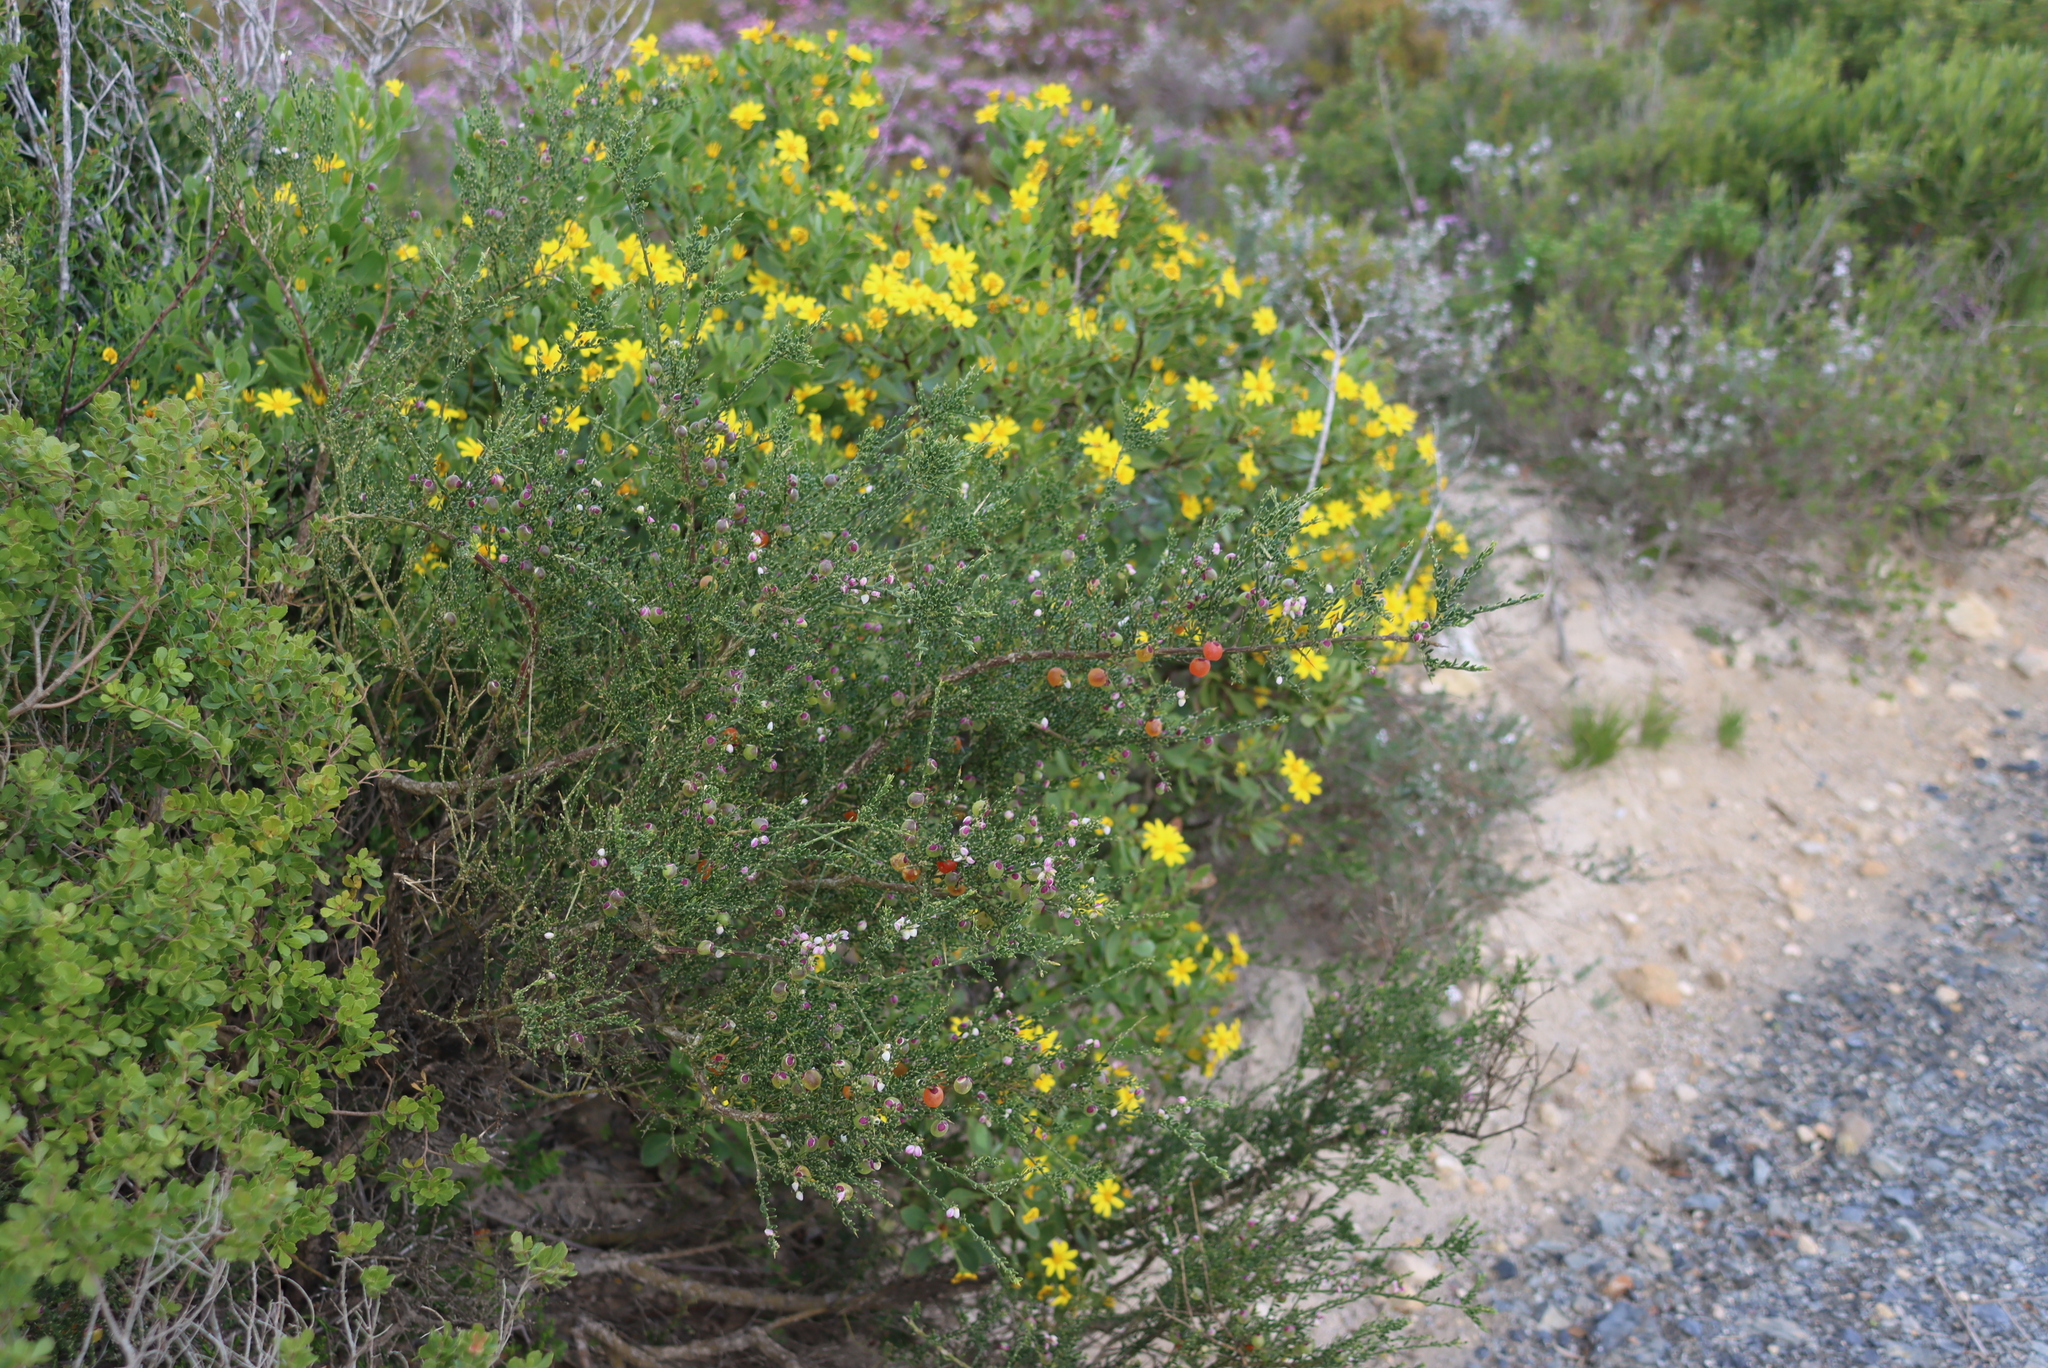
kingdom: Plantae
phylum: Tracheophyta
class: Magnoliopsida
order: Fabales
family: Polygalaceae
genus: Muraltia
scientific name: Muraltia spinosa
